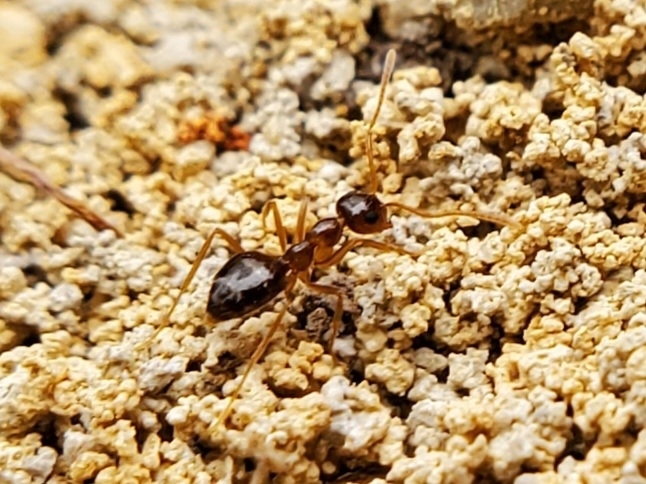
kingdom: Animalia
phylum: Arthropoda
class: Insecta
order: Hymenoptera
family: Formicidae
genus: Prenolepis
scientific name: Prenolepis imparis
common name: Small honey ant
